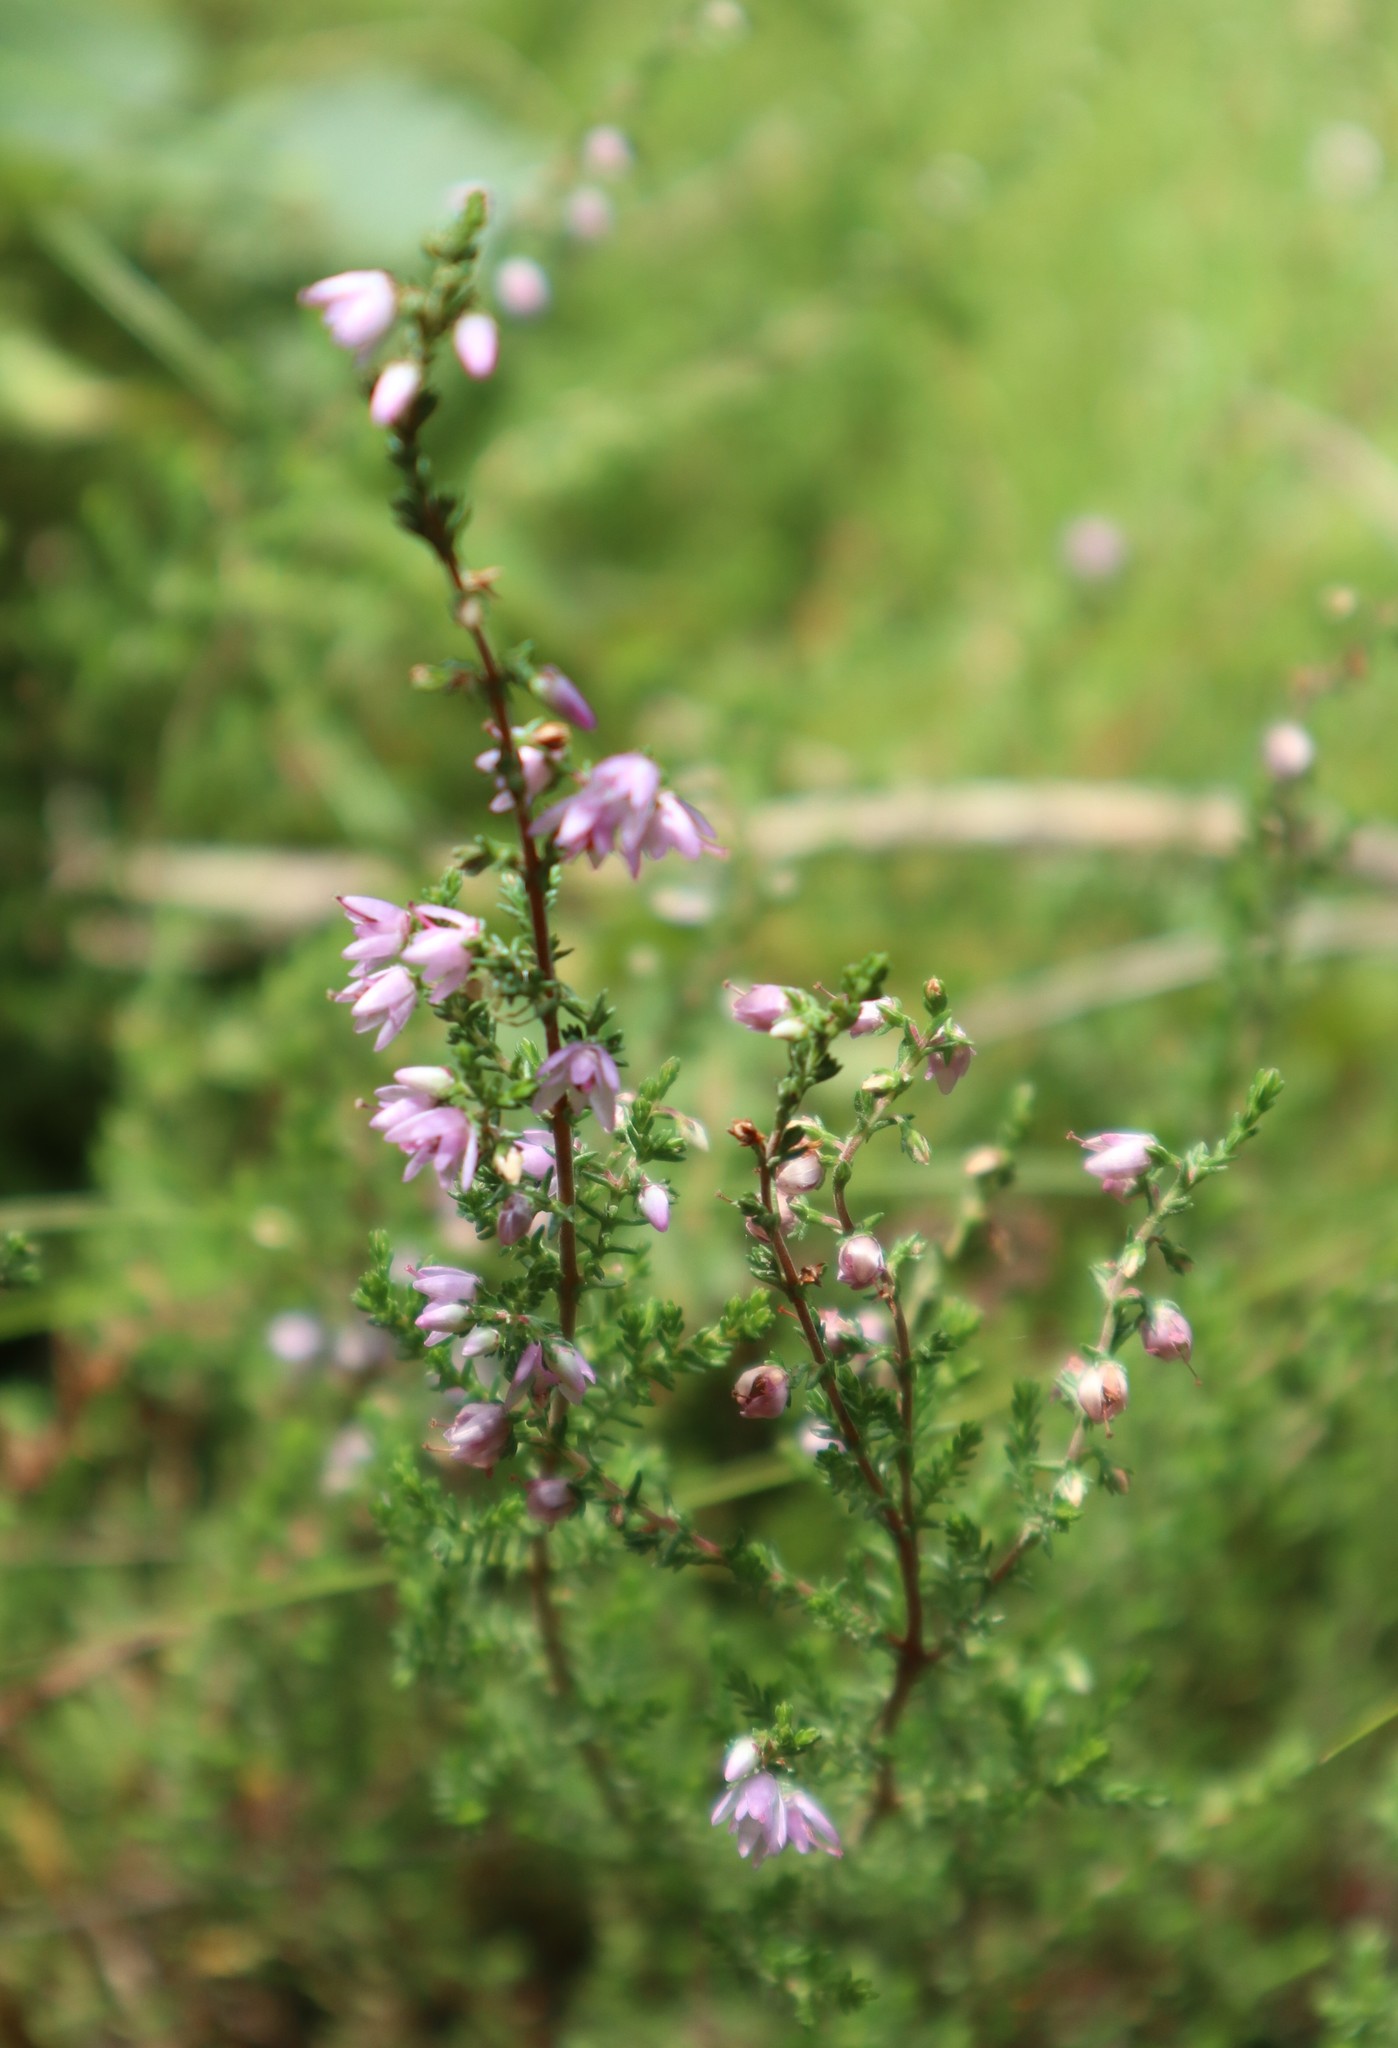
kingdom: Plantae
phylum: Tracheophyta
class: Magnoliopsida
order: Ericales
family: Ericaceae
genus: Calluna
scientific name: Calluna vulgaris
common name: Heather
